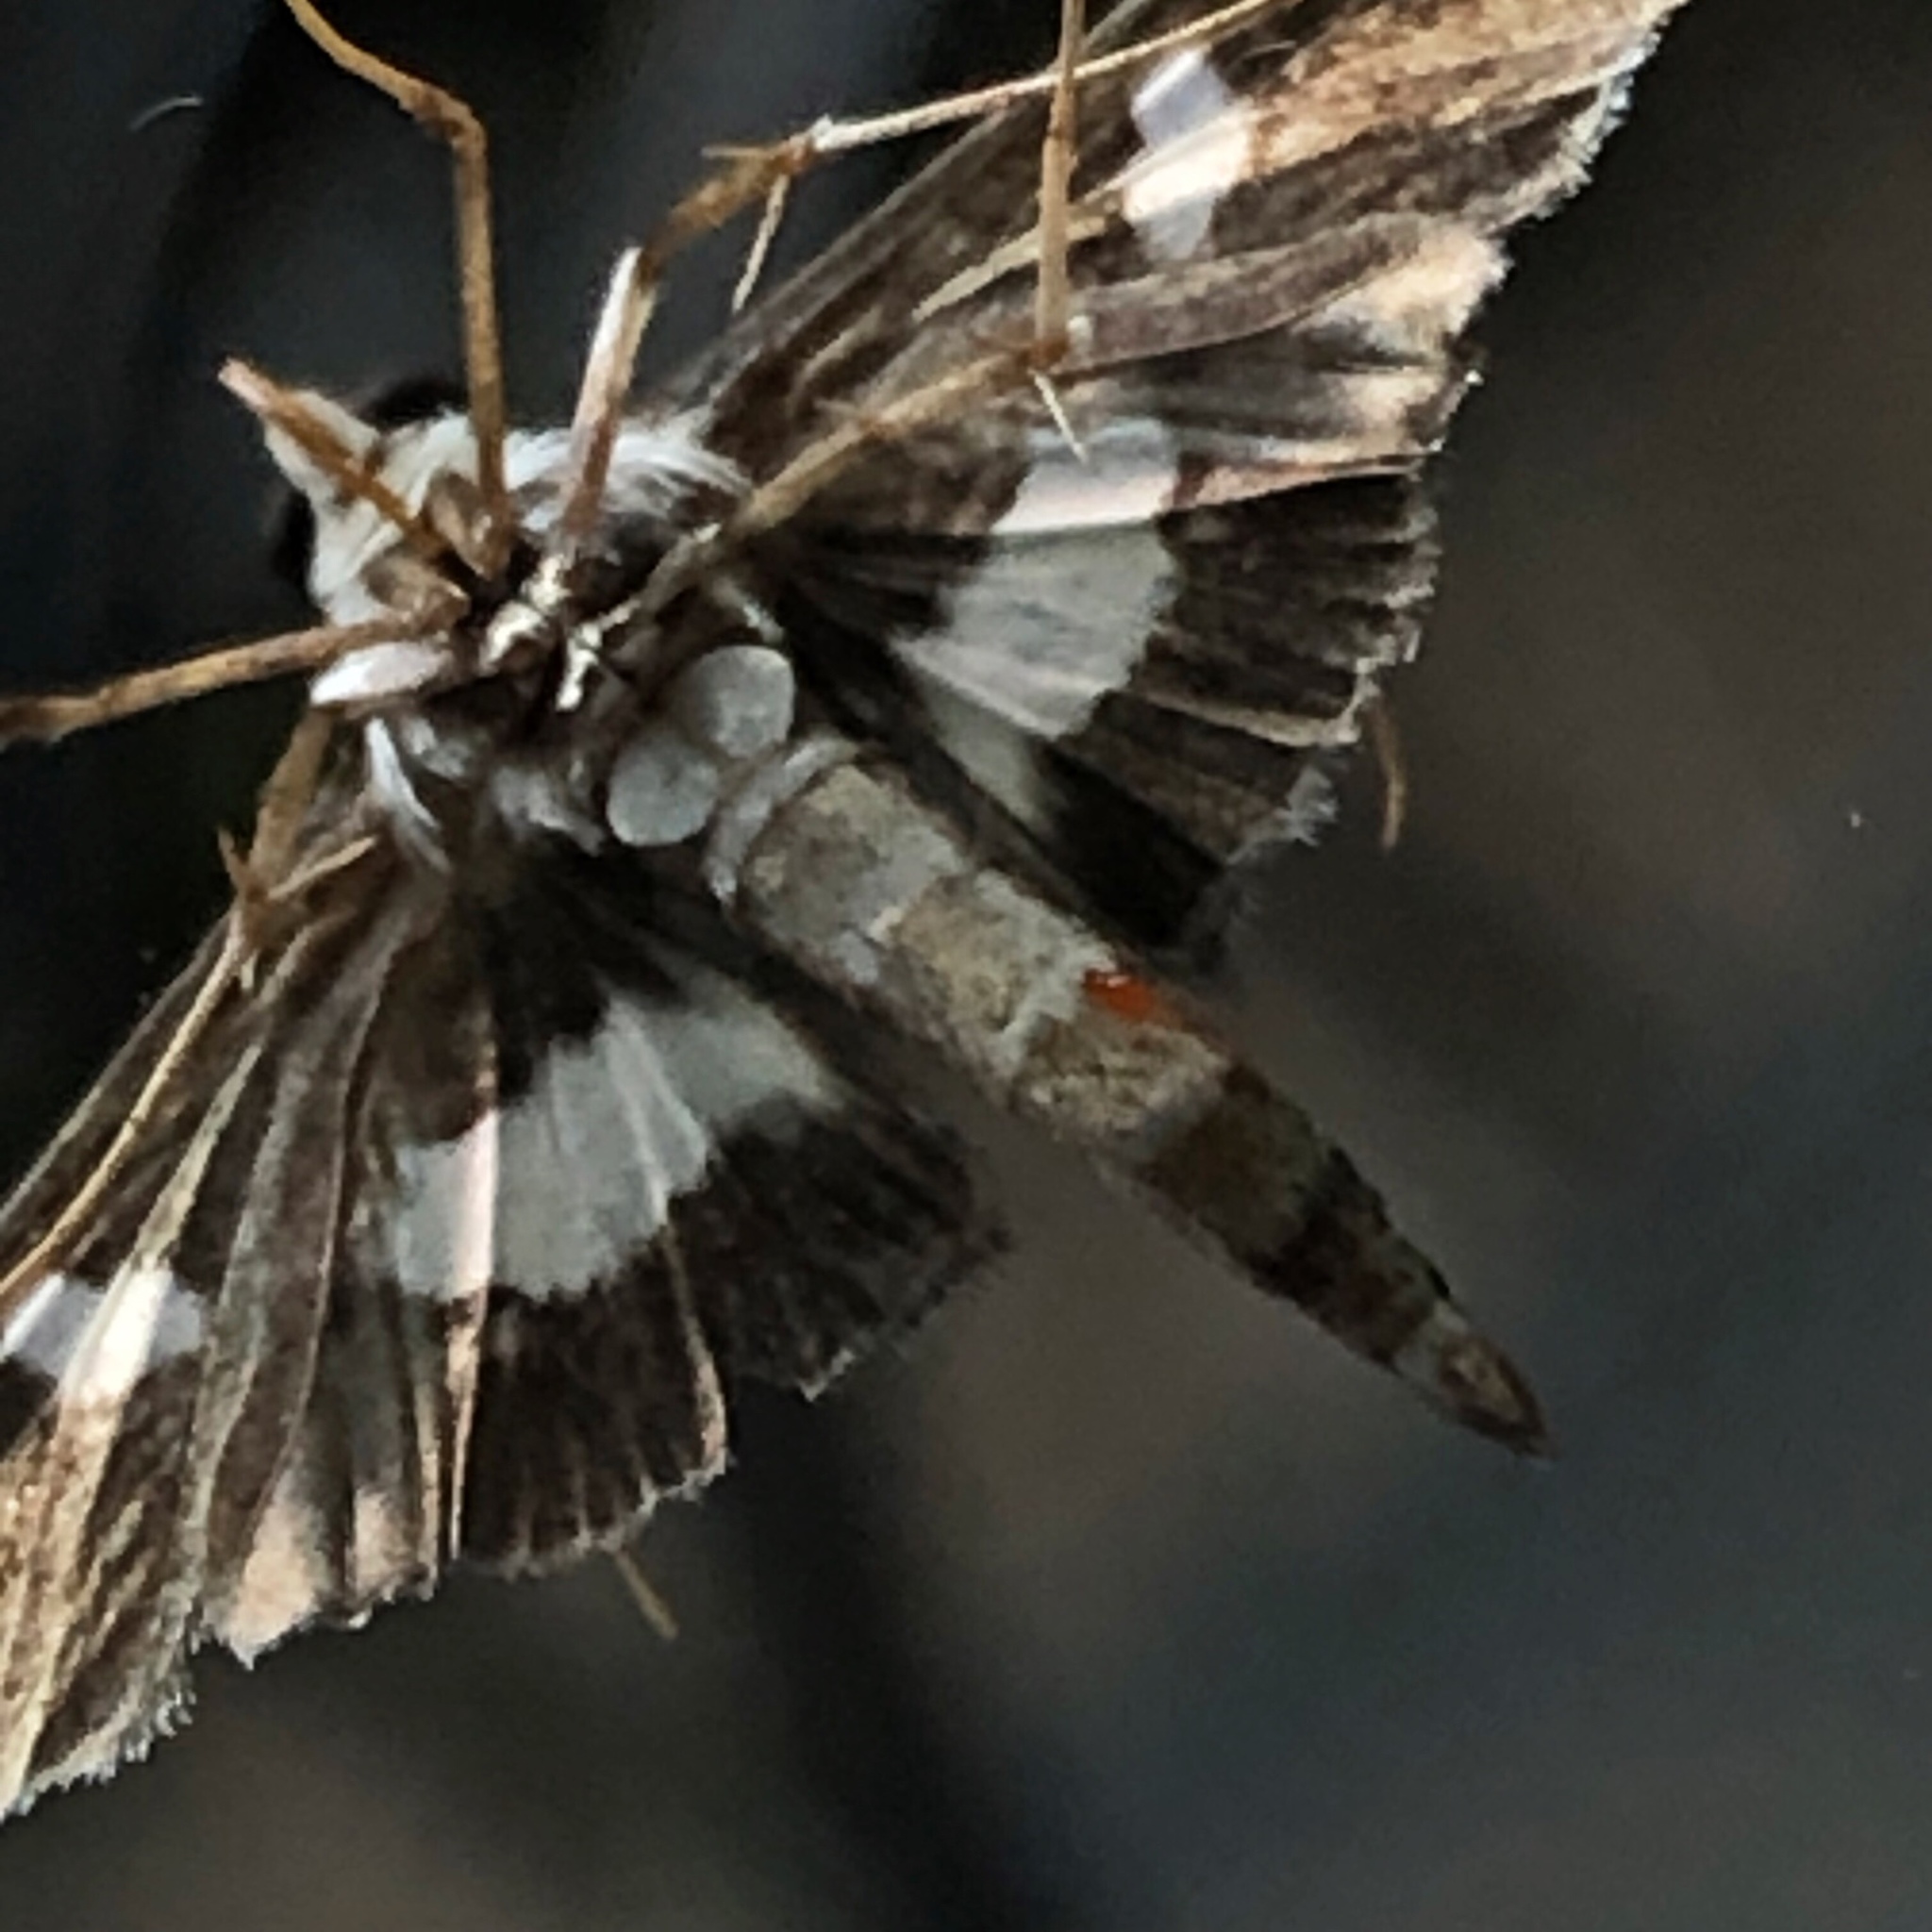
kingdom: Animalia
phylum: Arthropoda
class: Insecta
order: Lepidoptera
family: Crambidae
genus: Desmia
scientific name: Desmia funeralis
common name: Grape leaf folder moth
